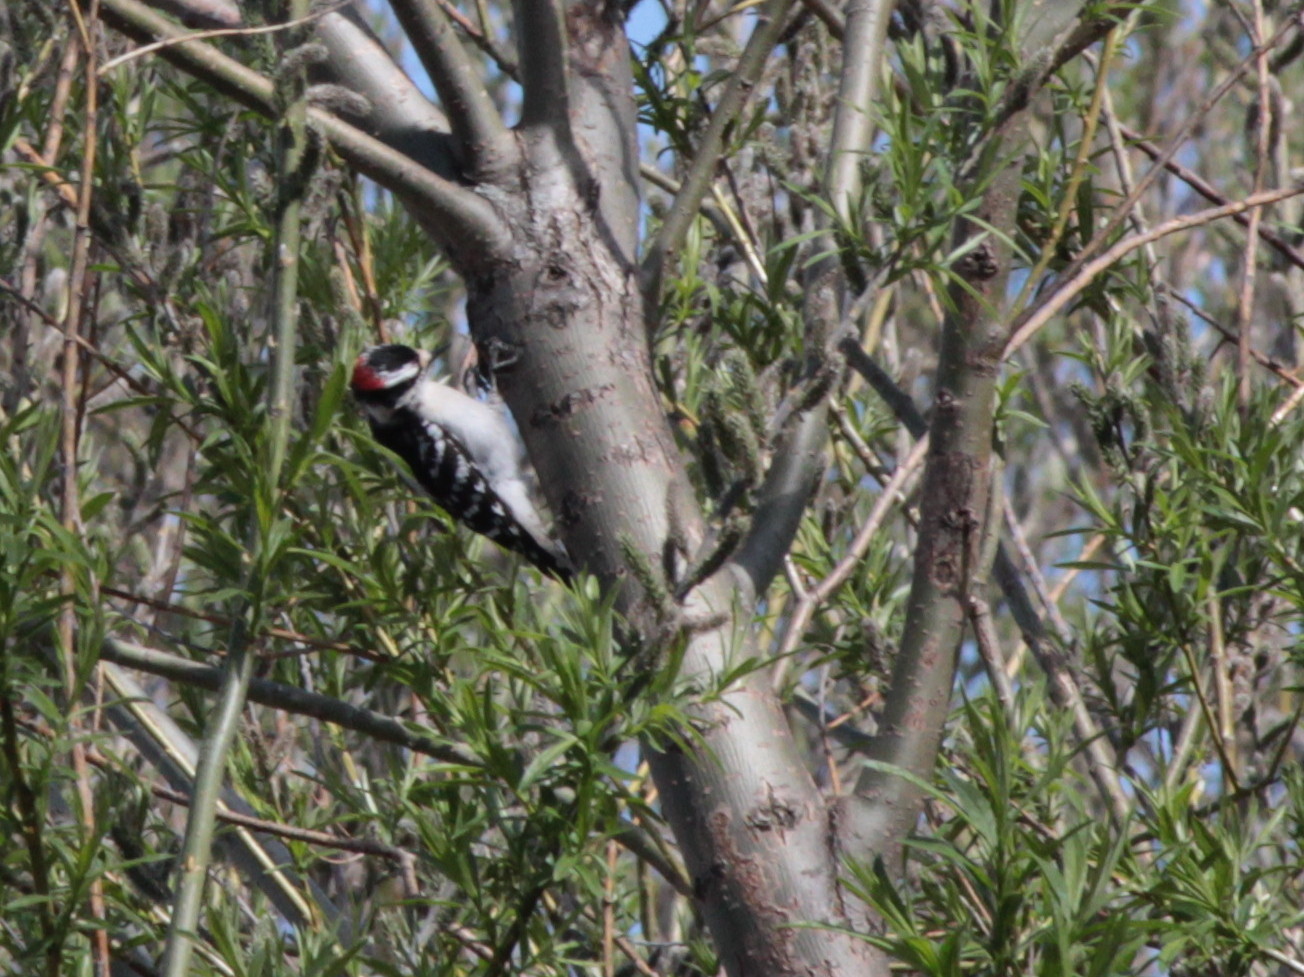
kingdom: Animalia
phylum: Chordata
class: Aves
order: Piciformes
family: Picidae
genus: Dryobates
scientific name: Dryobates pubescens
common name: Downy woodpecker
